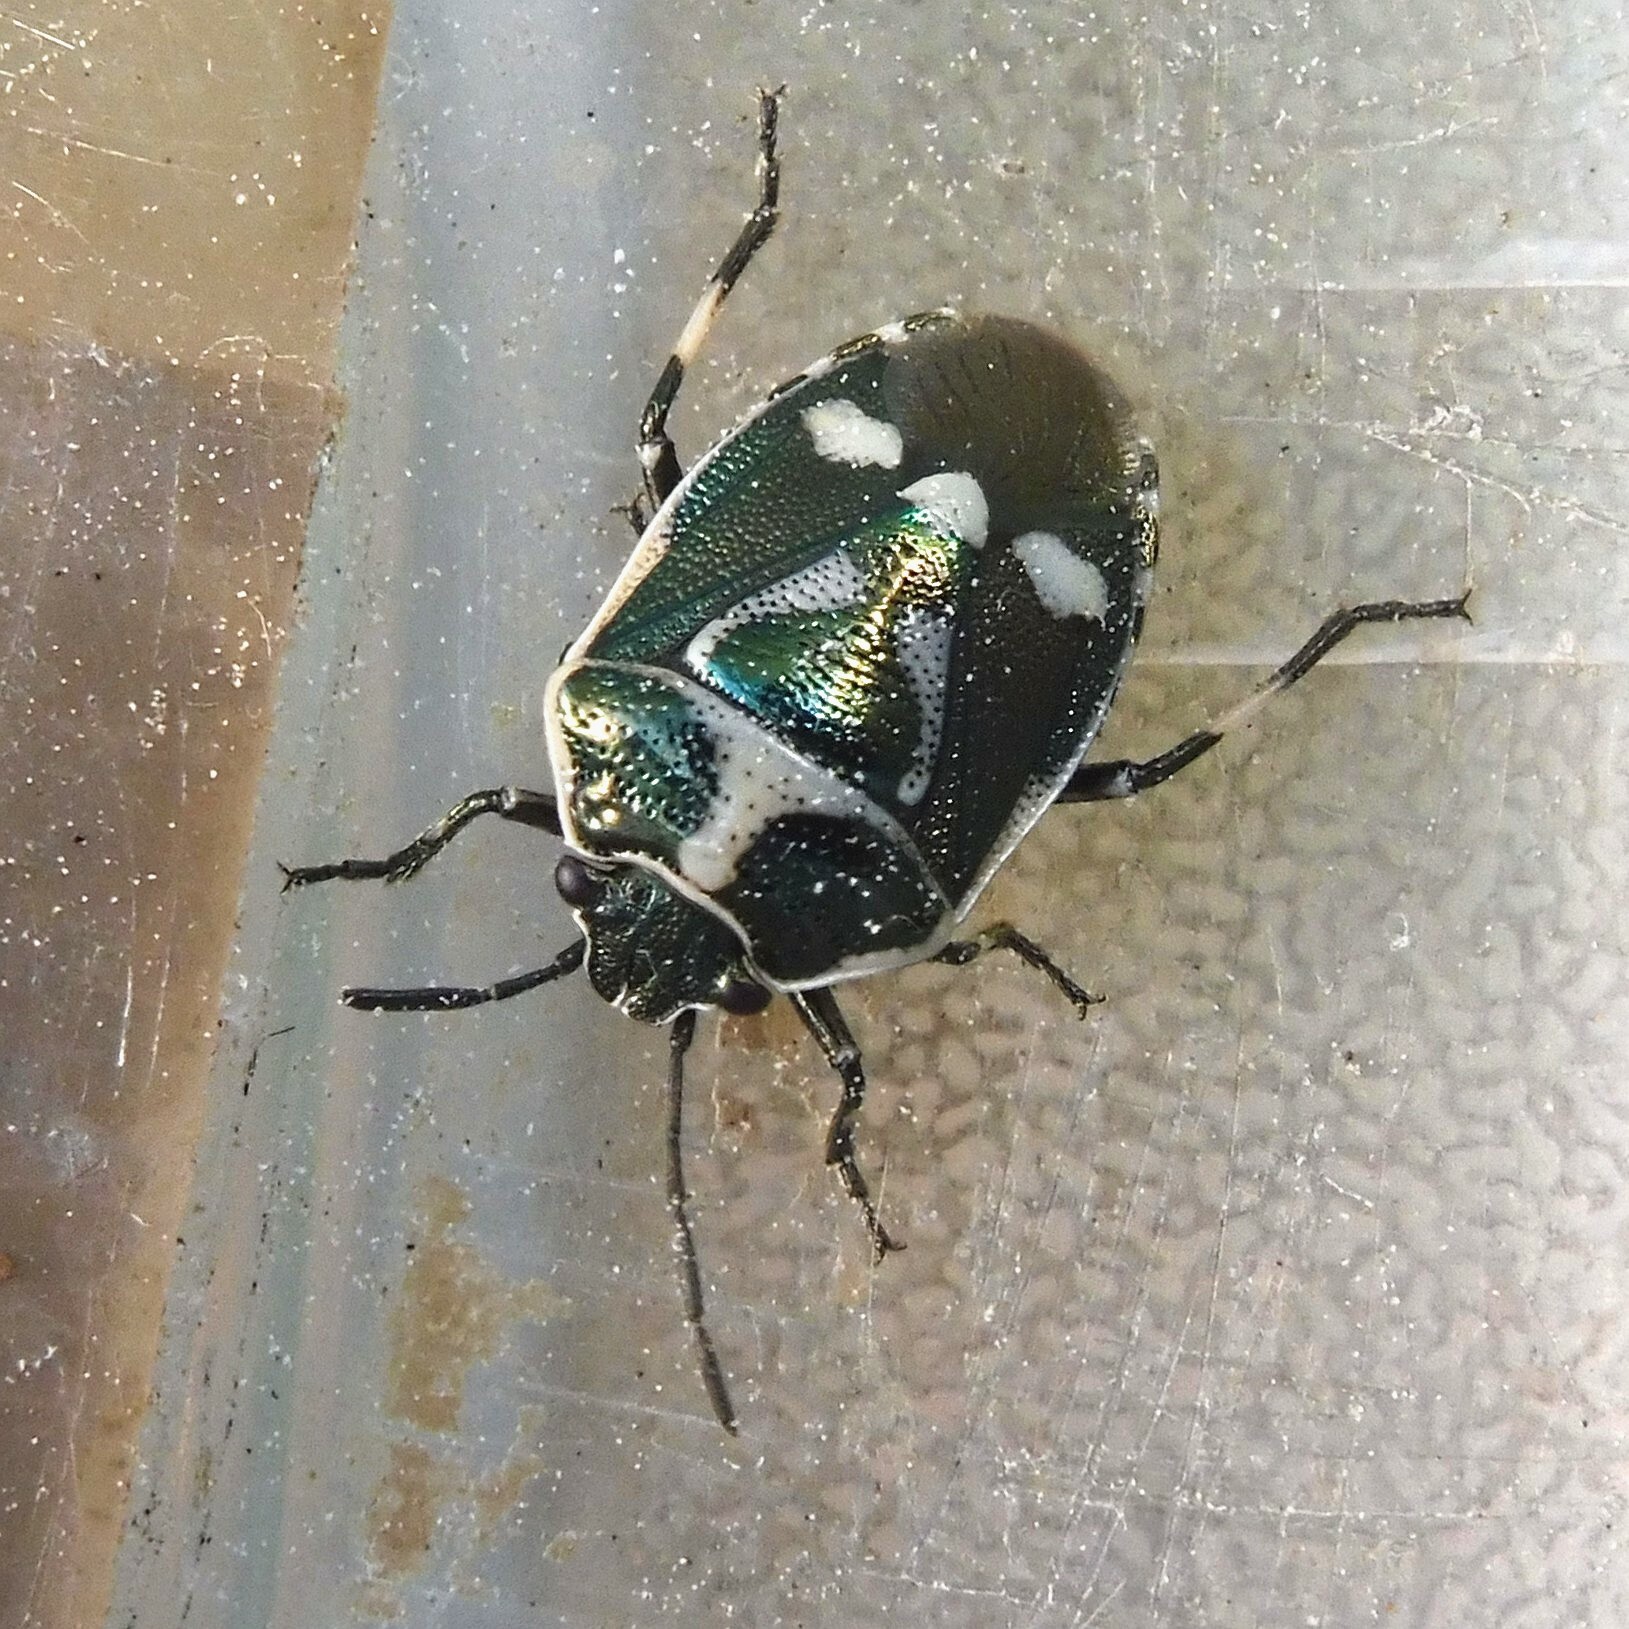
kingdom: Animalia
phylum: Arthropoda
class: Insecta
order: Hemiptera
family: Pentatomidae
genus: Eurydema
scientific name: Eurydema oleracea
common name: Cabbage bug
